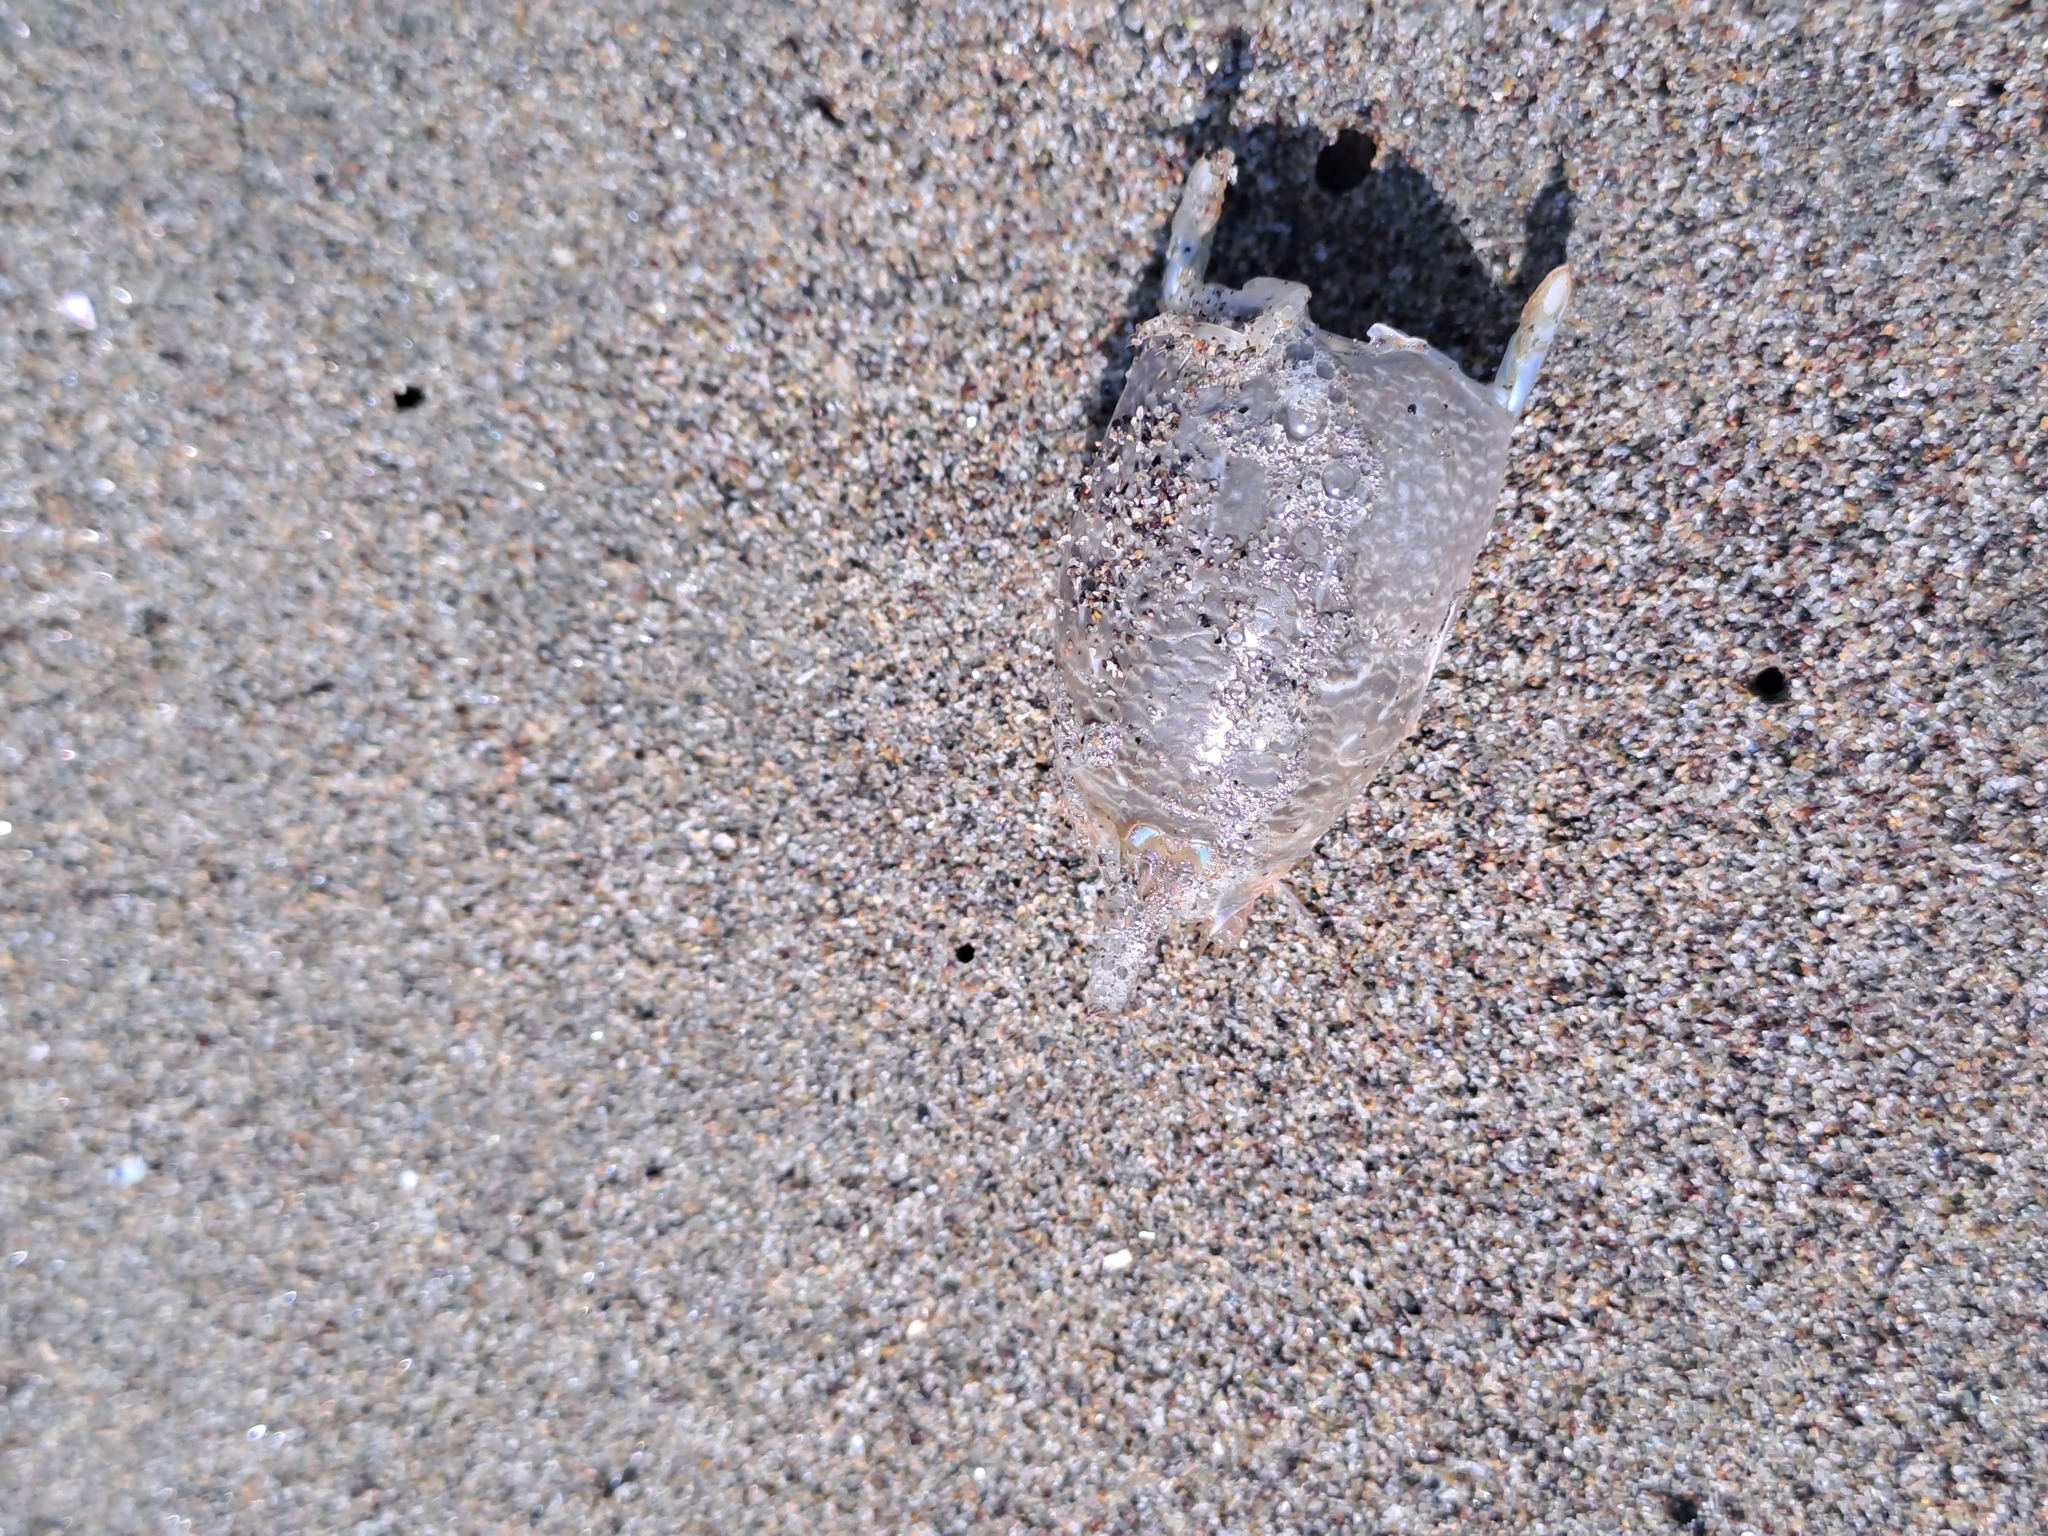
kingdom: Animalia
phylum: Arthropoda
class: Malacostraca
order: Decapoda
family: Hippidae
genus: Emerita
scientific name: Emerita analoga
